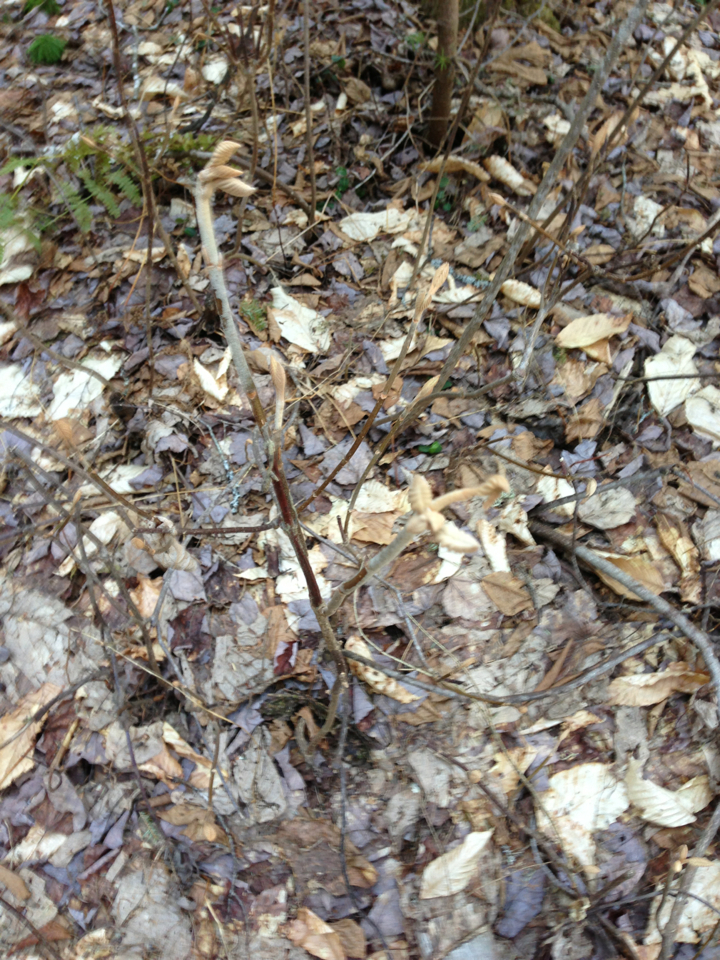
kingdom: Plantae
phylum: Tracheophyta
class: Magnoliopsida
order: Dipsacales
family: Viburnaceae
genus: Viburnum
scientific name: Viburnum lantanoides
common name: Hobblebush
